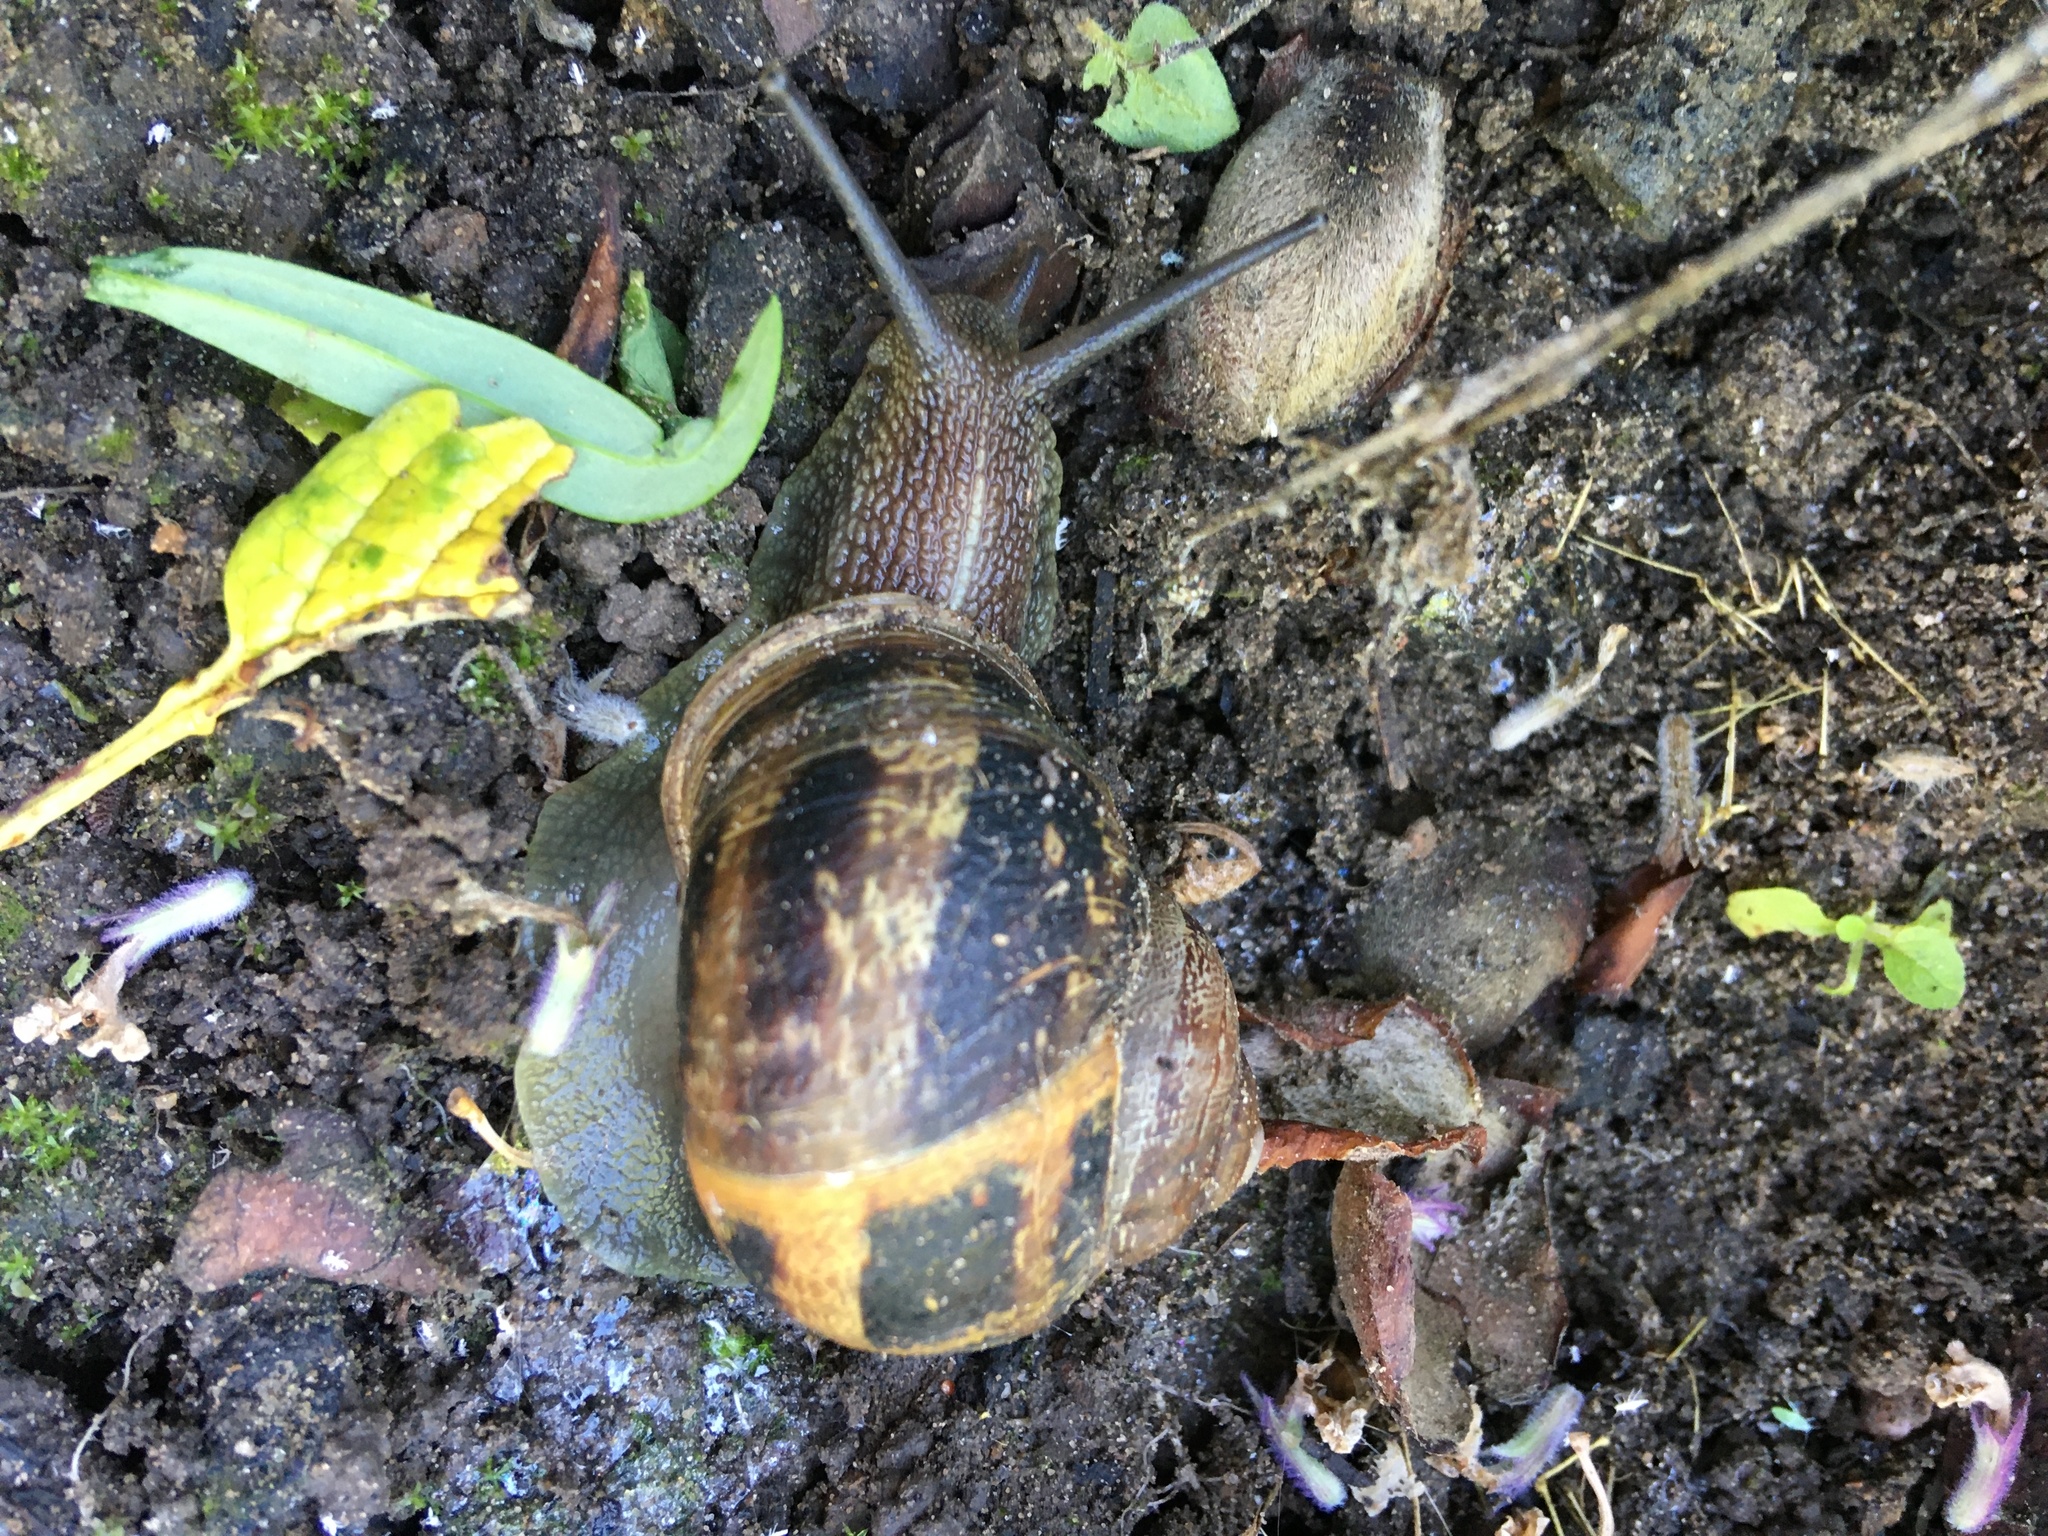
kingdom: Animalia
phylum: Mollusca
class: Gastropoda
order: Stylommatophora
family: Helicidae
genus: Cornu
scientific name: Cornu aspersum
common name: Brown garden snail
